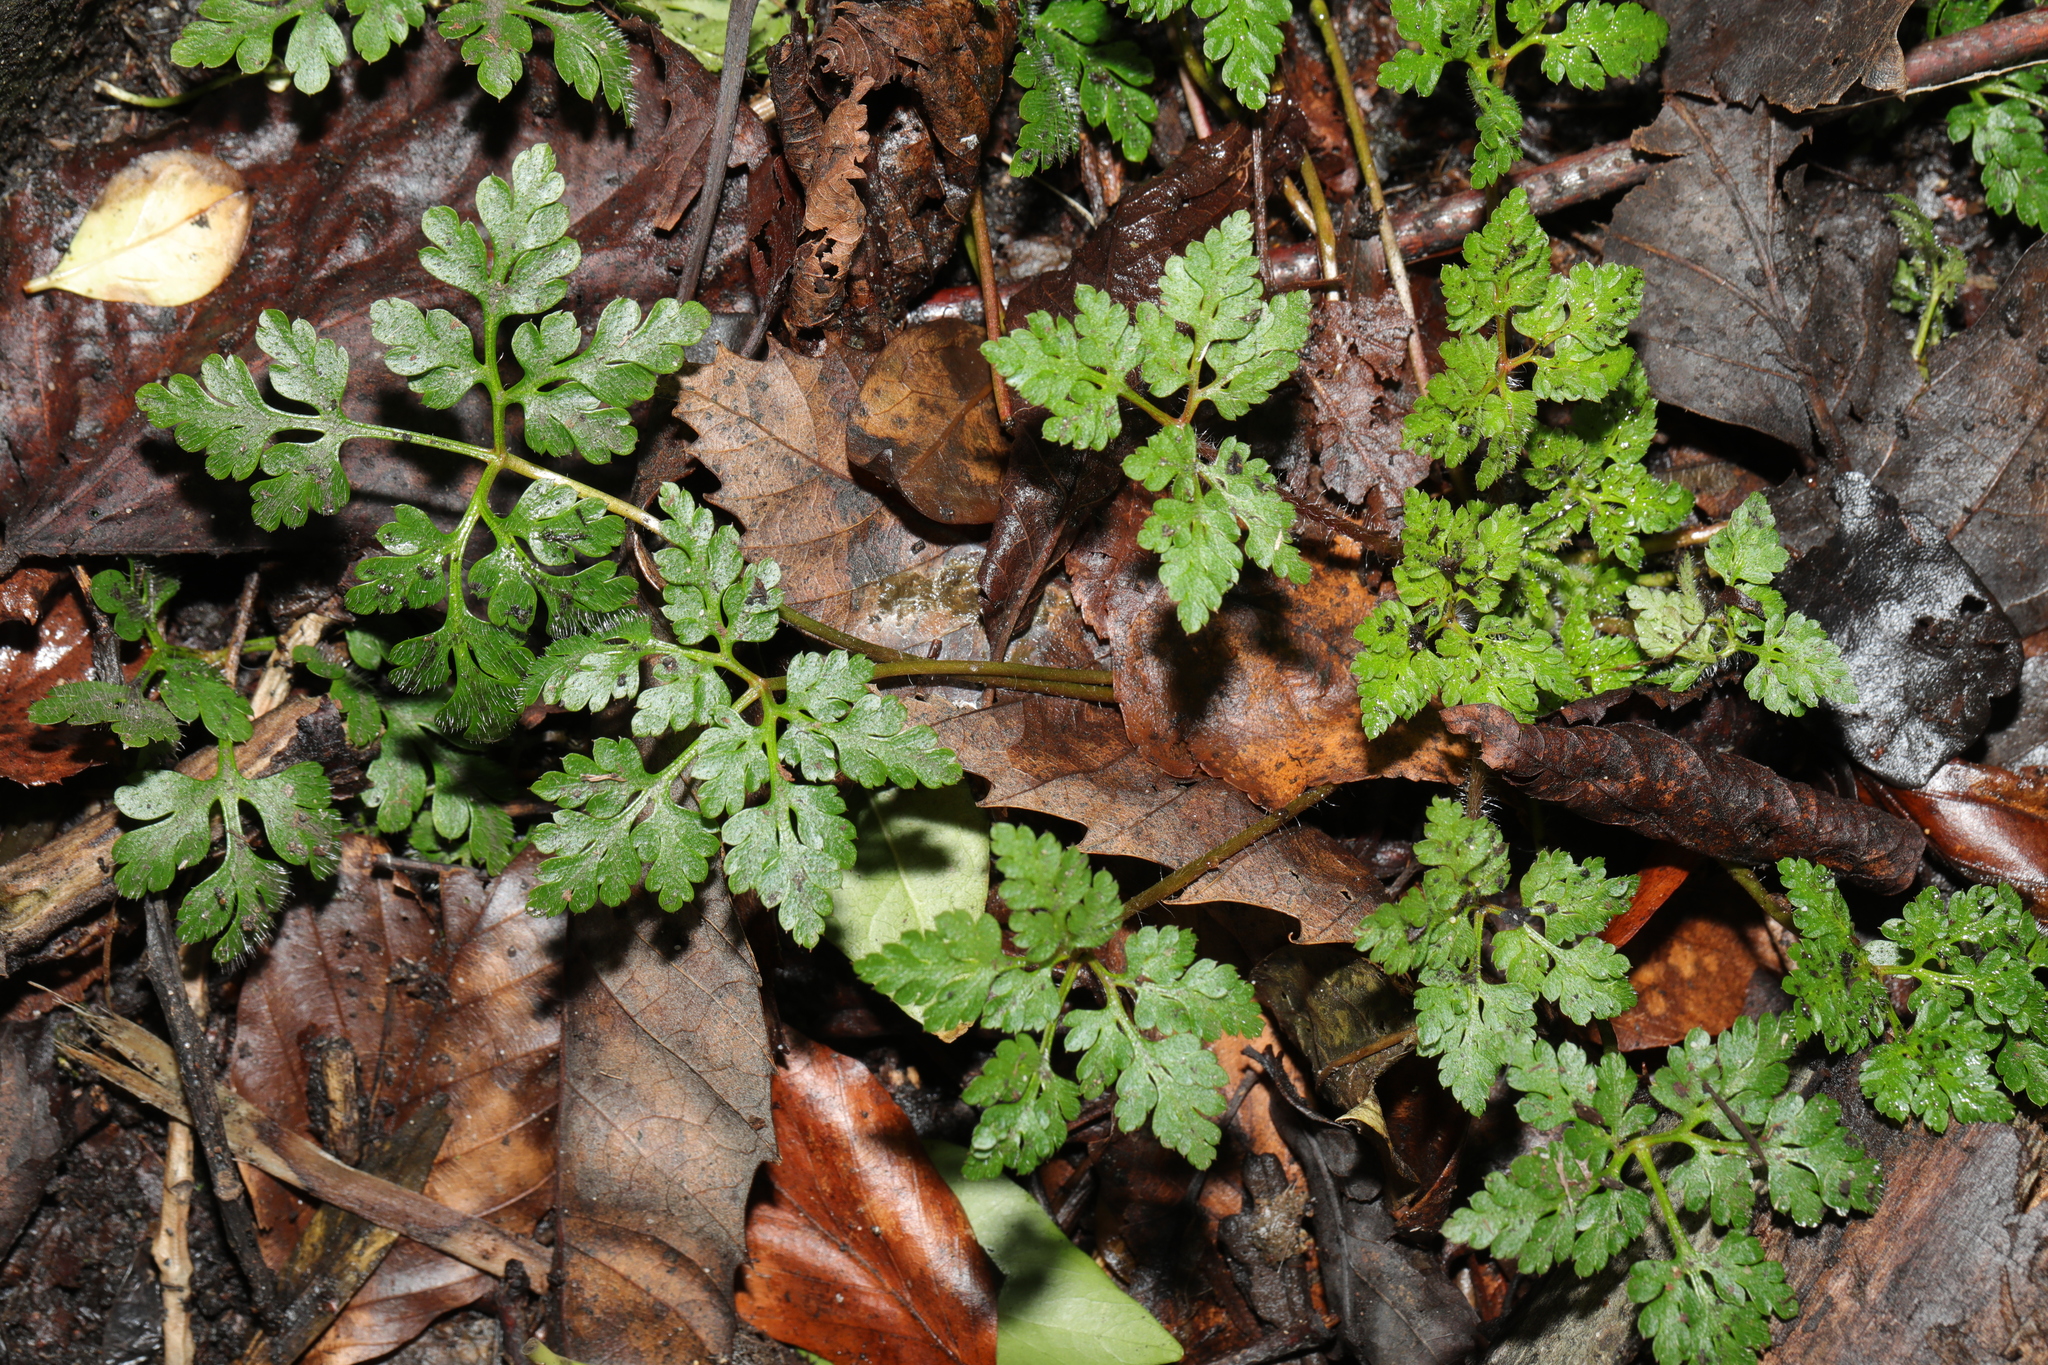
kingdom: Plantae
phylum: Tracheophyta
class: Magnoliopsida
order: Geraniales
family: Geraniaceae
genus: Geranium
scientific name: Geranium robertianum
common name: Herb-robert
